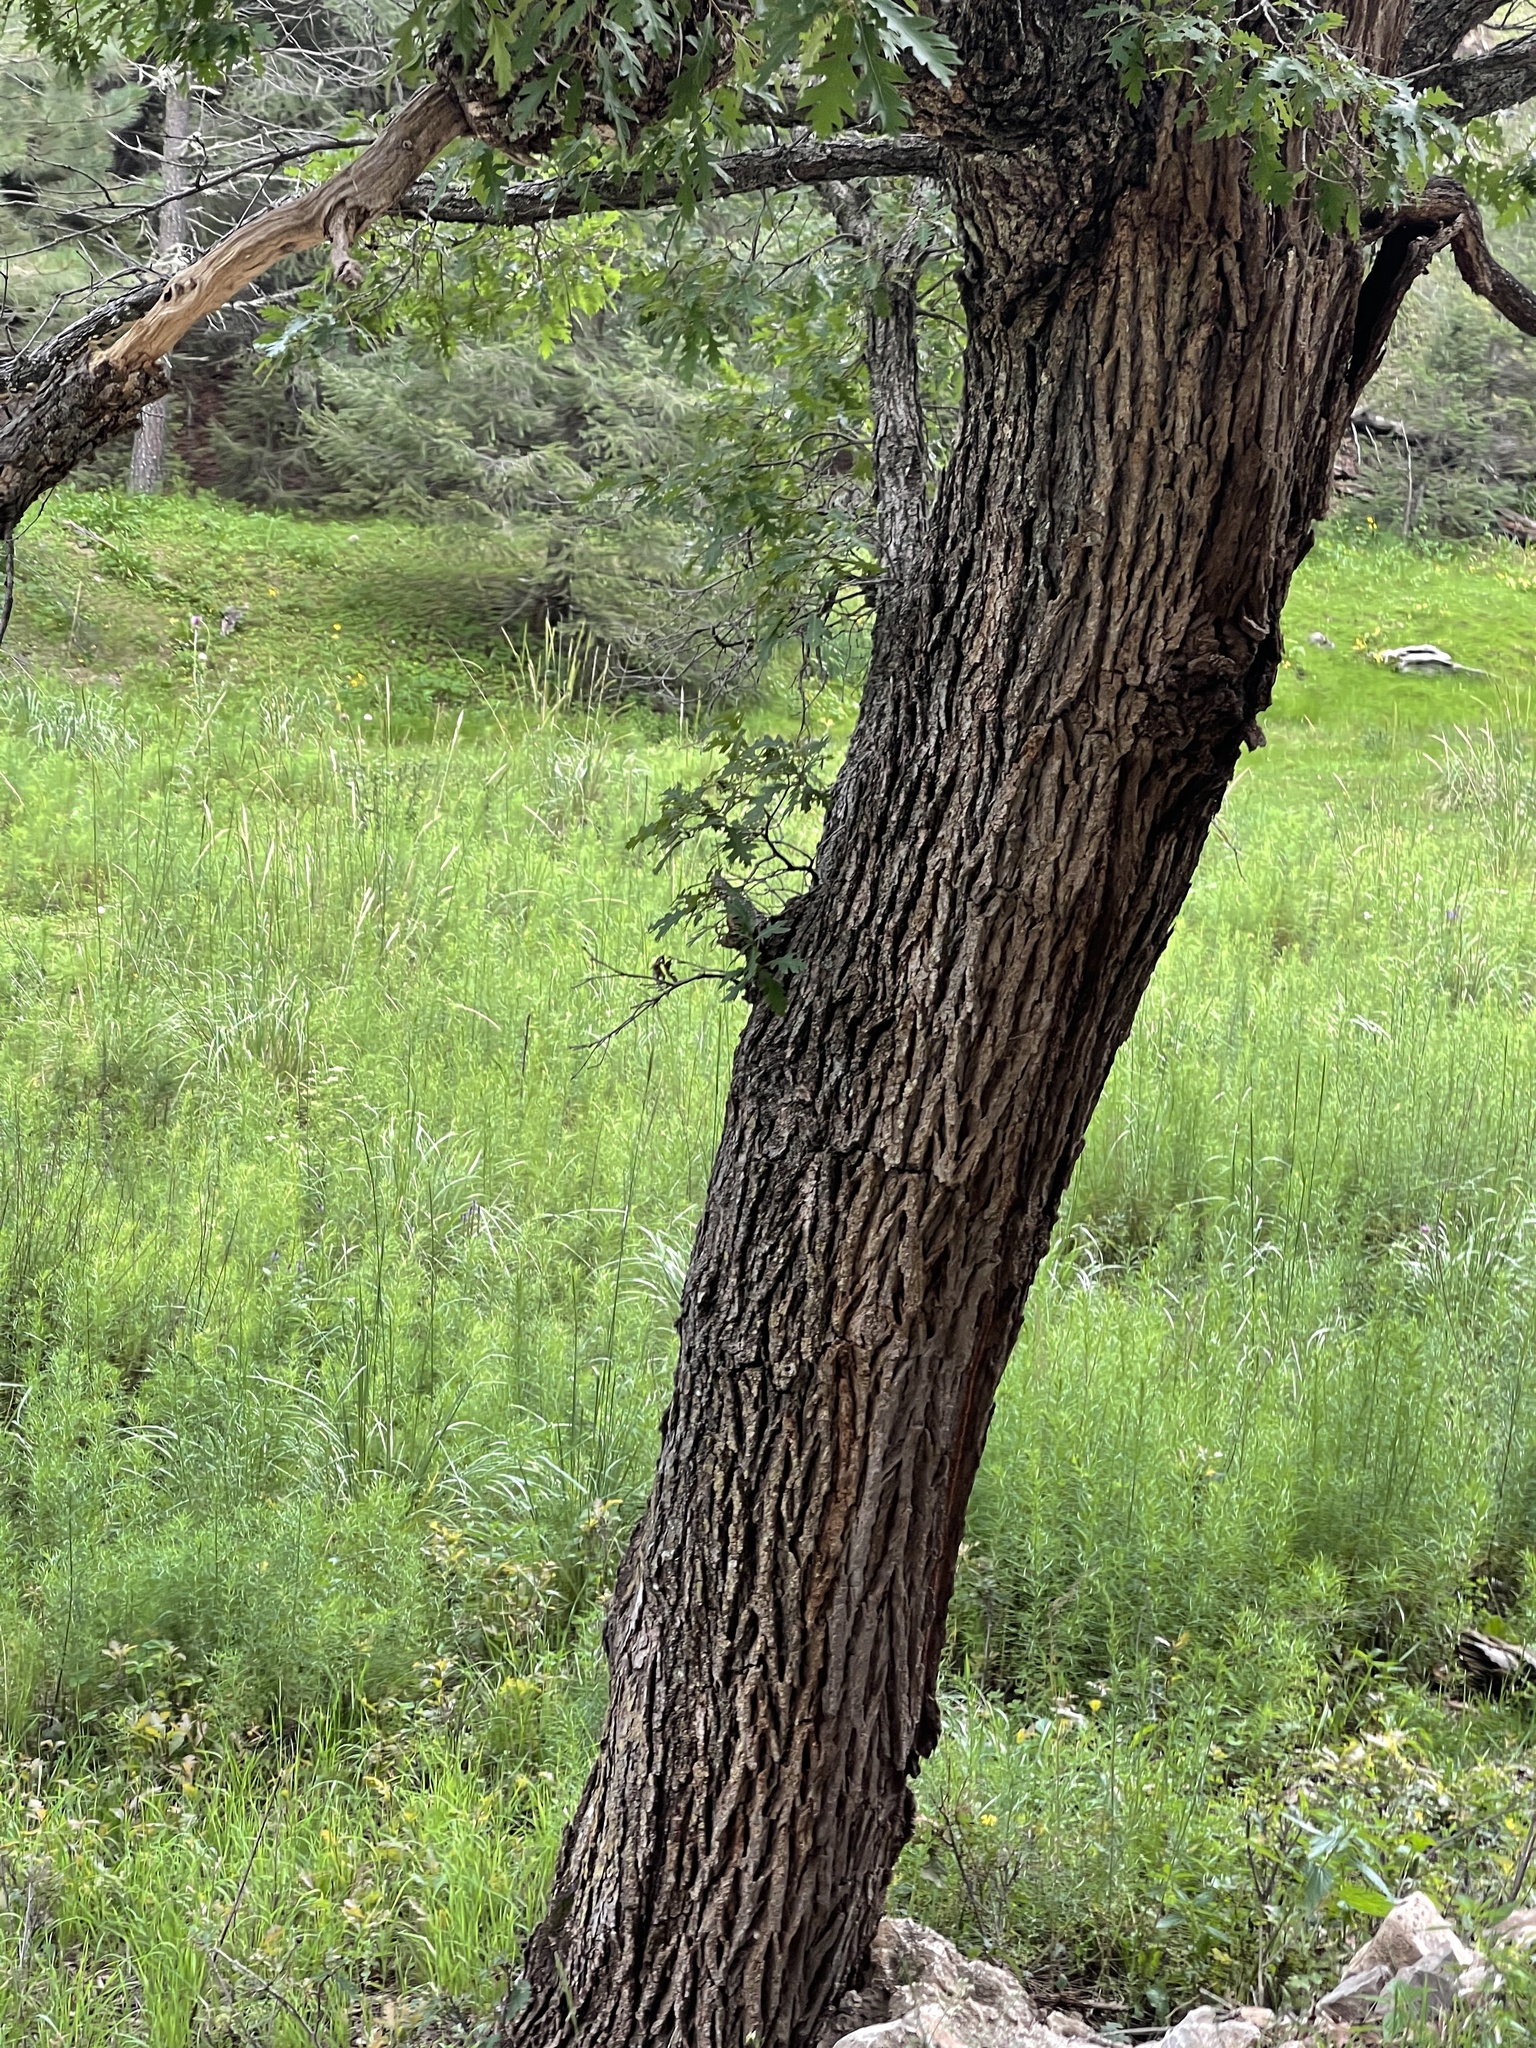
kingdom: Plantae
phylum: Tracheophyta
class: Magnoliopsida
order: Fagales
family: Fagaceae
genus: Quercus
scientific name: Quercus gambelii
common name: Gambel oak
